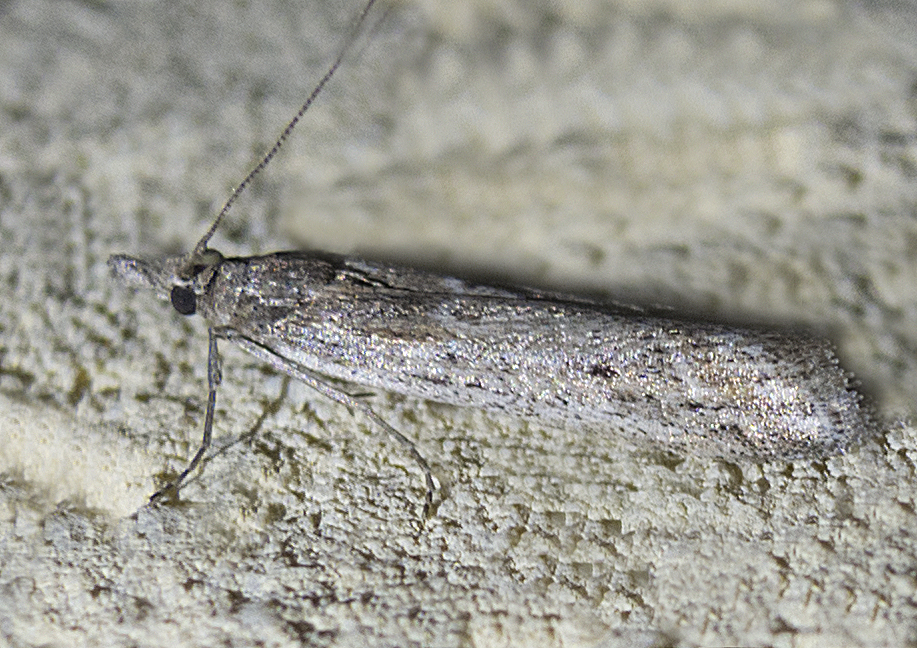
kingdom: Animalia
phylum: Arthropoda
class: Insecta
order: Lepidoptera
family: Pyralidae
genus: Ancylosis
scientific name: Ancylosis sareptalla
